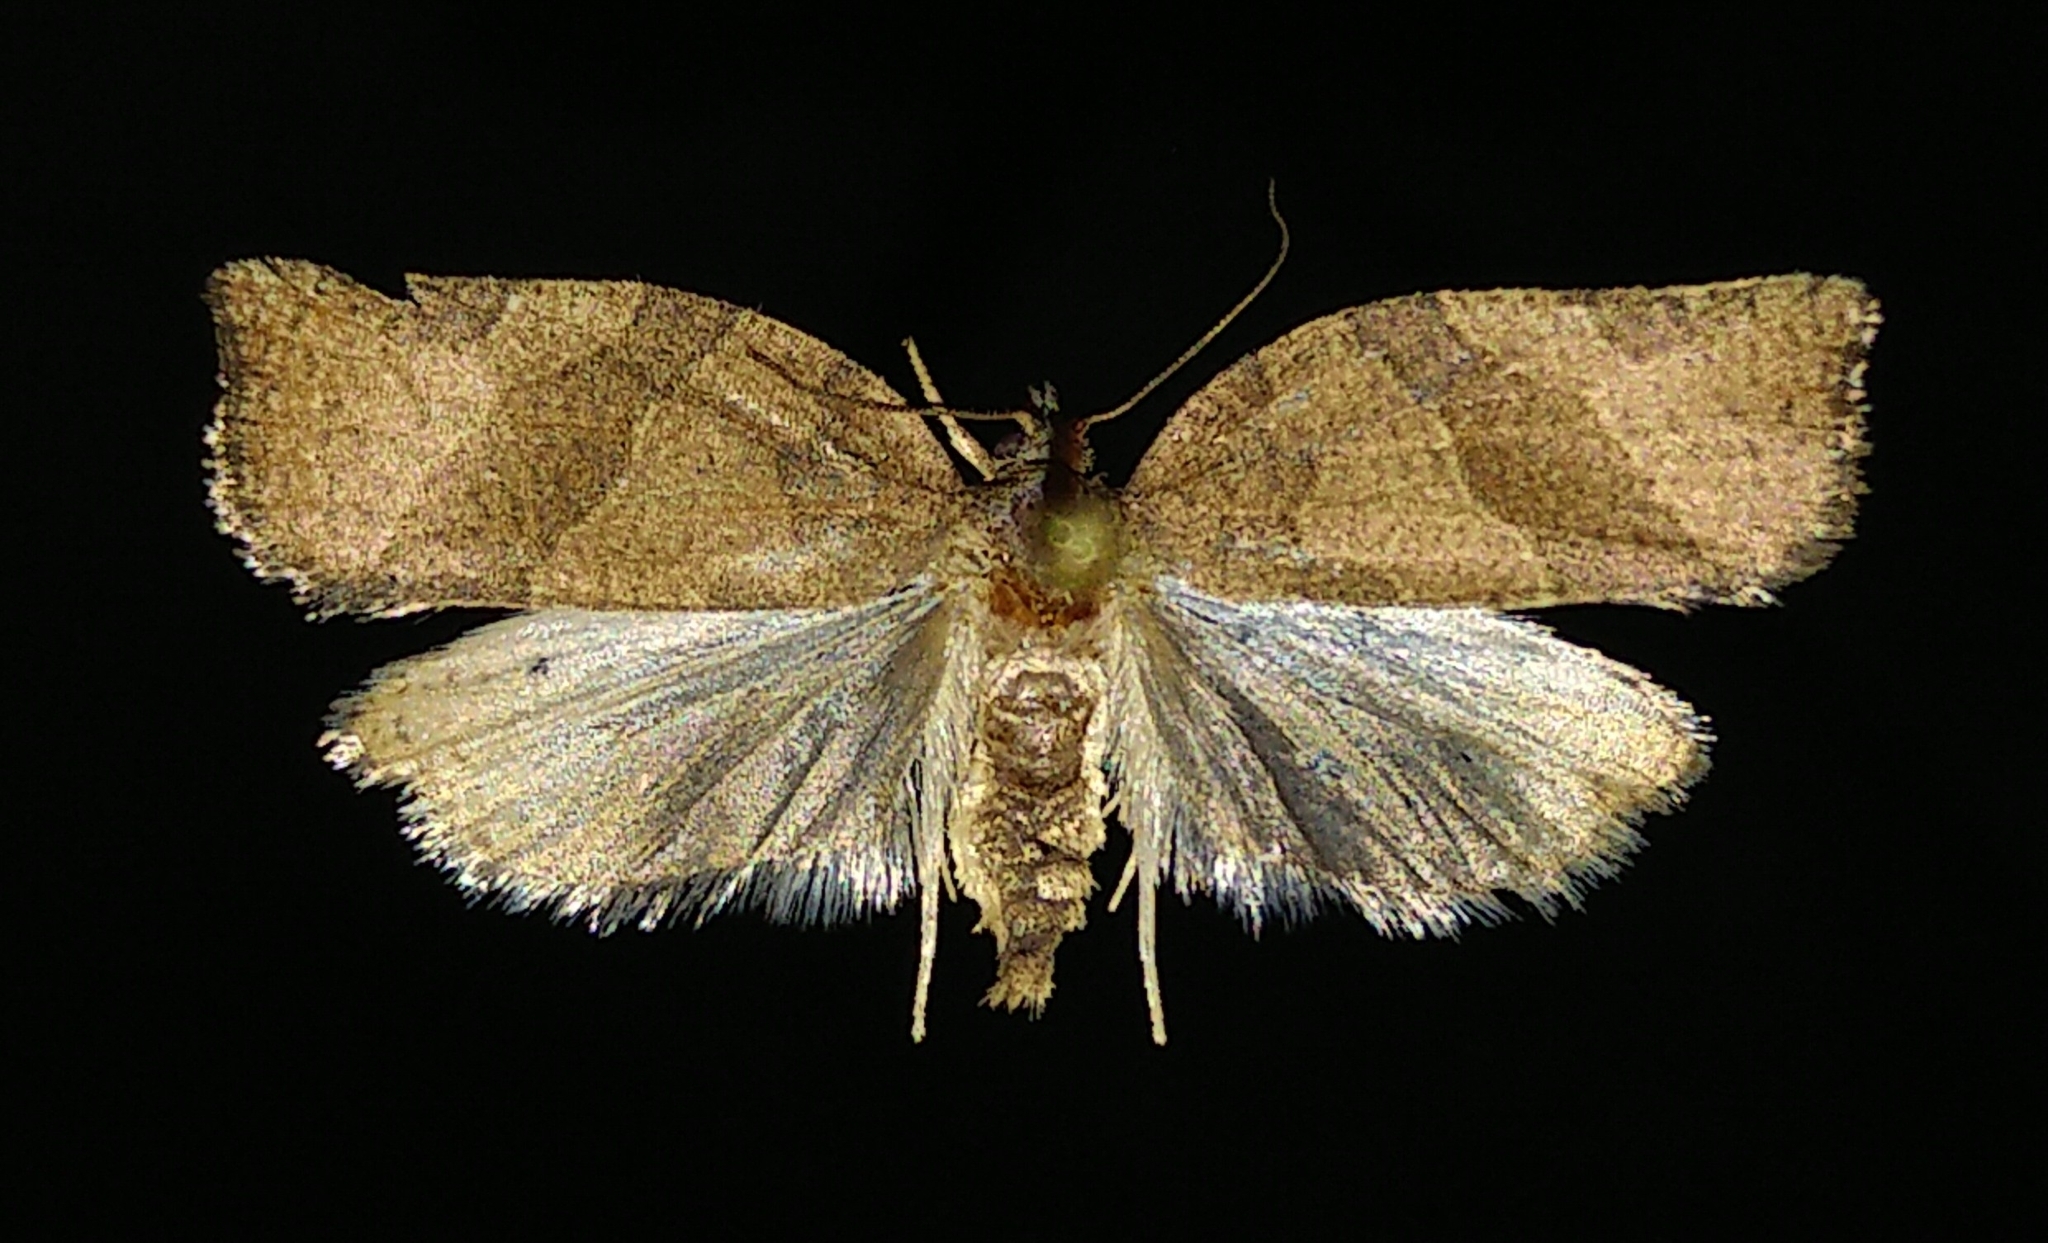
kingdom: Animalia
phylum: Arthropoda
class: Insecta
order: Lepidoptera
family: Tortricidae
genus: Pandemis
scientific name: Pandemis canadana
